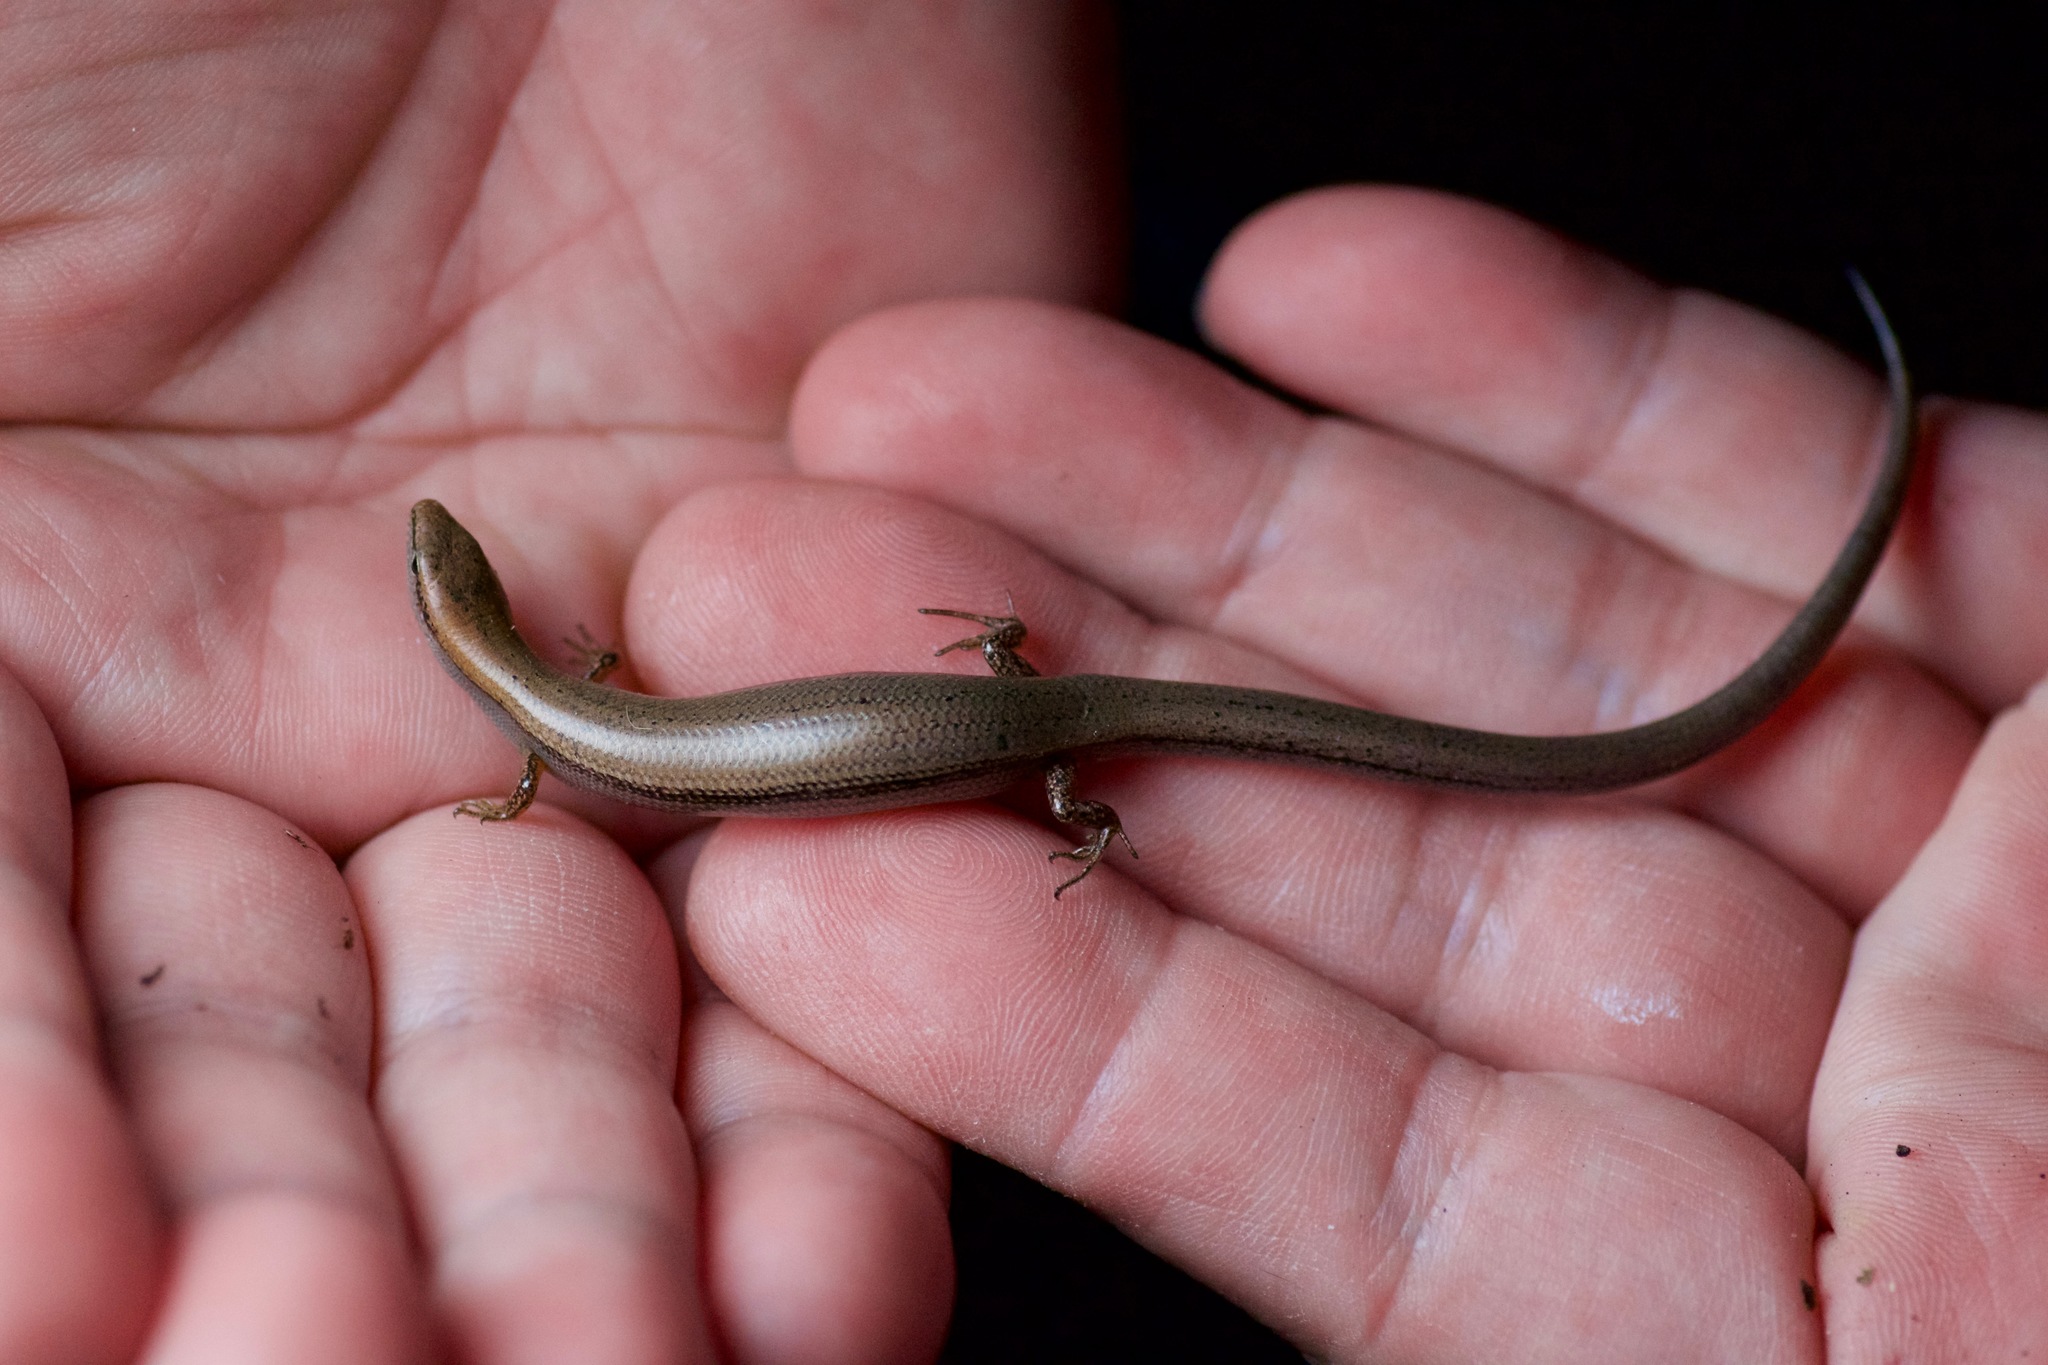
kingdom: Animalia
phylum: Chordata
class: Squamata
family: Scincidae
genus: Scincella
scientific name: Scincella lateralis
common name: Ground skink
